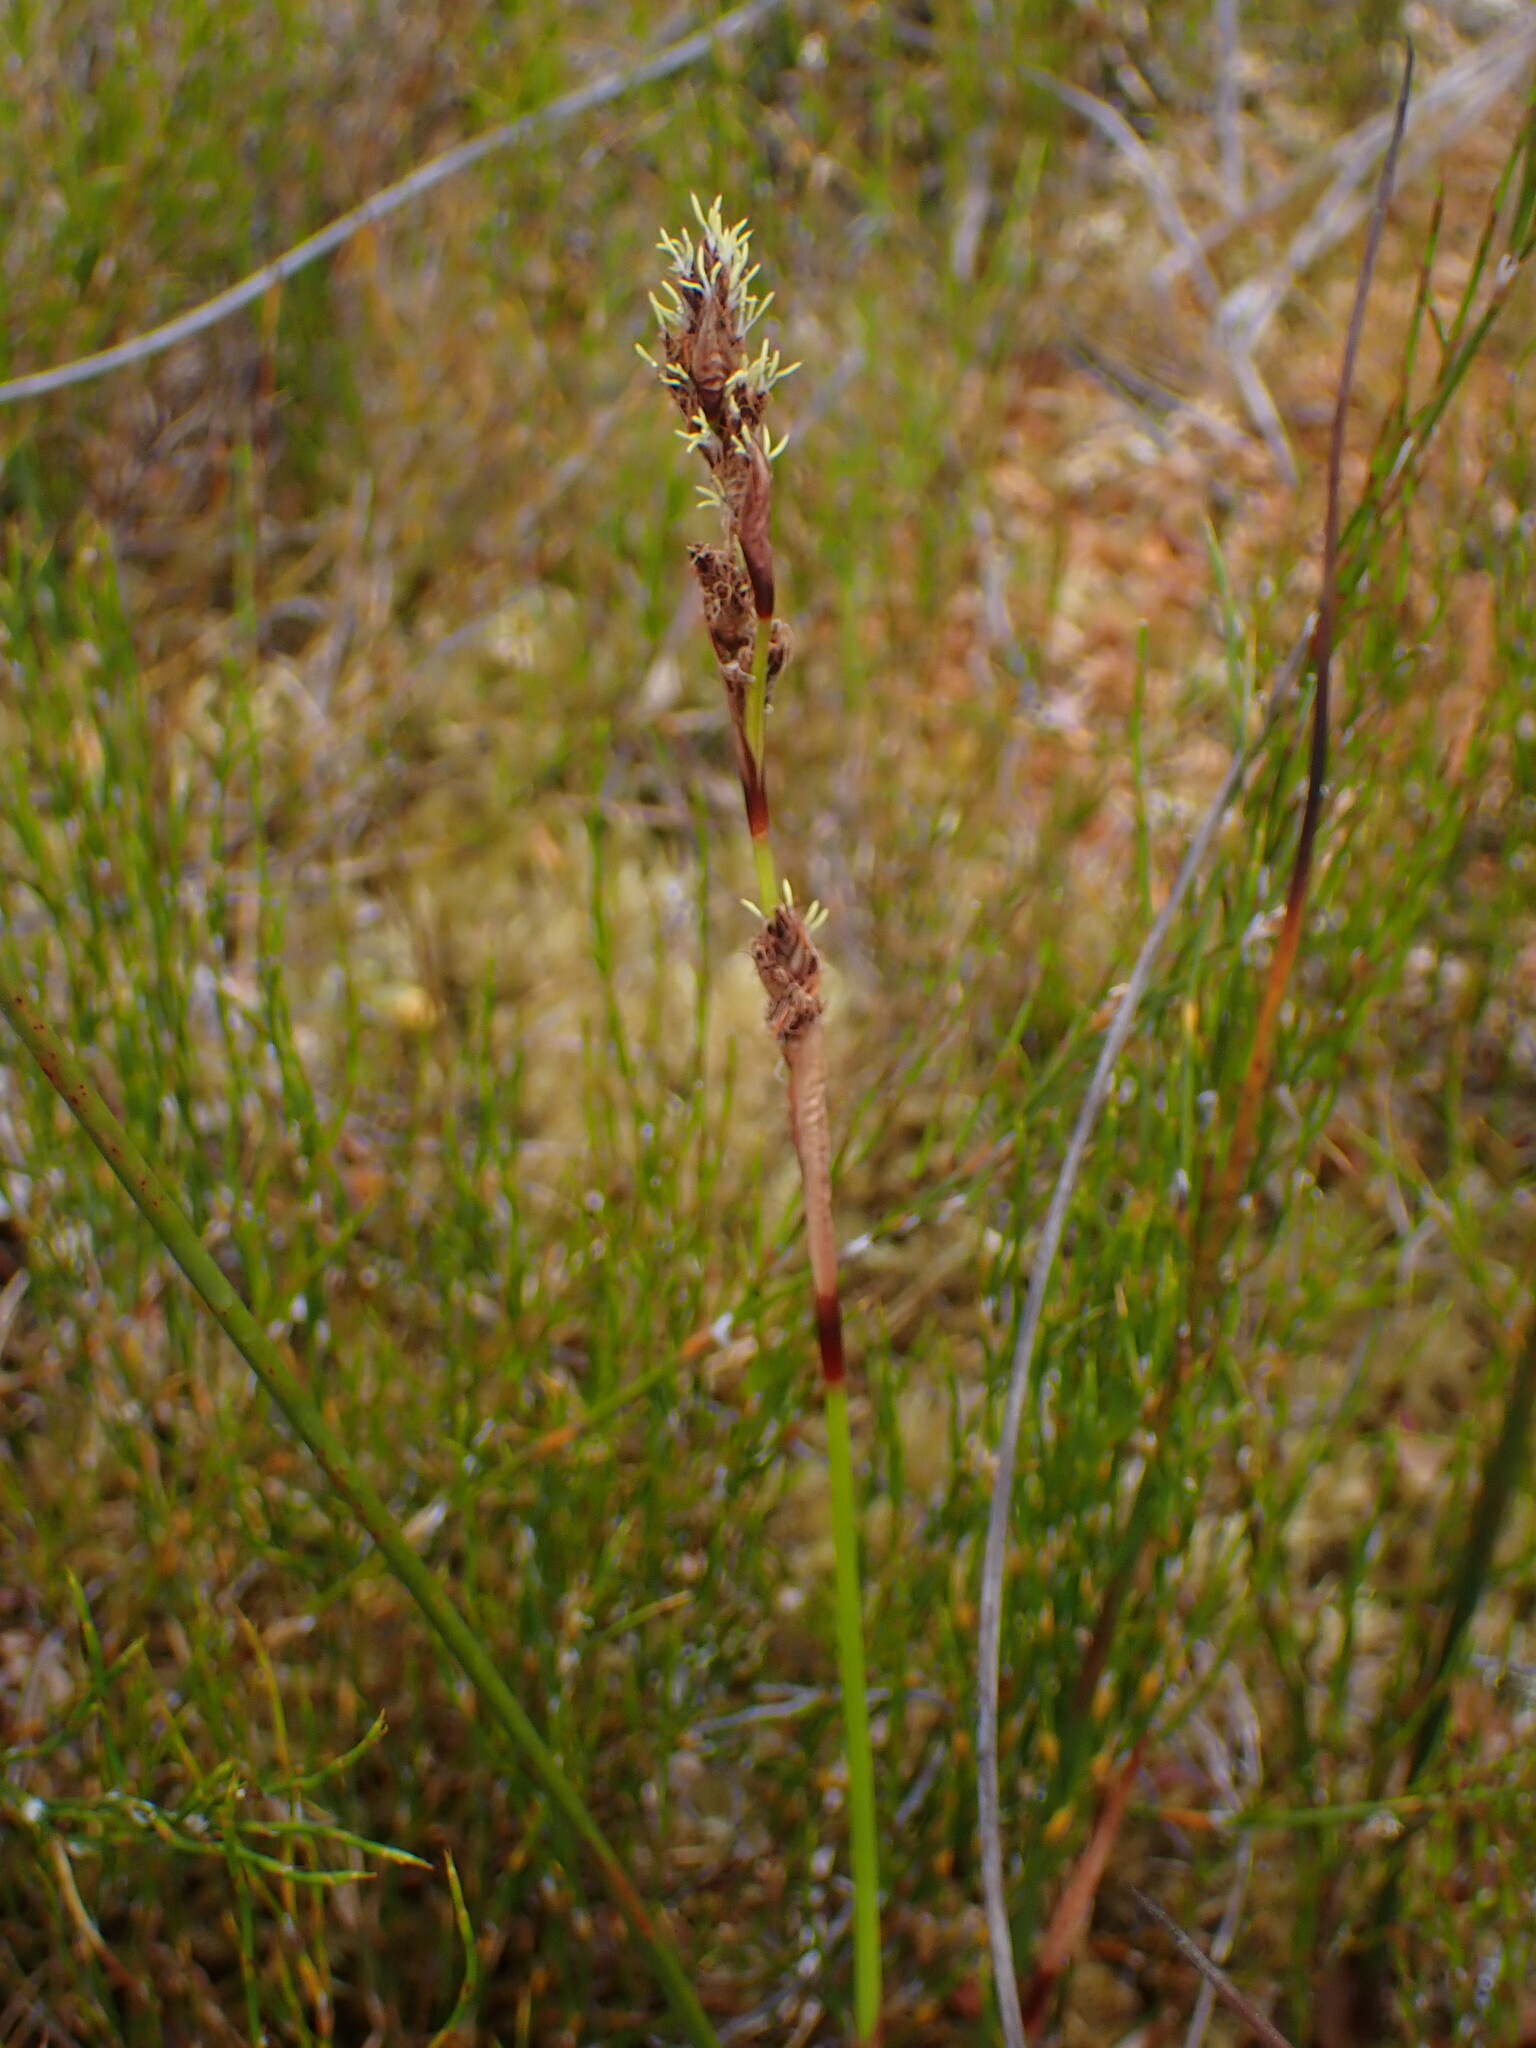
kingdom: Plantae
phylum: Tracheophyta
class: Liliopsida
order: Poales
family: Cyperaceae
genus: Machaerina
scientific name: Machaerina rubiginosa
